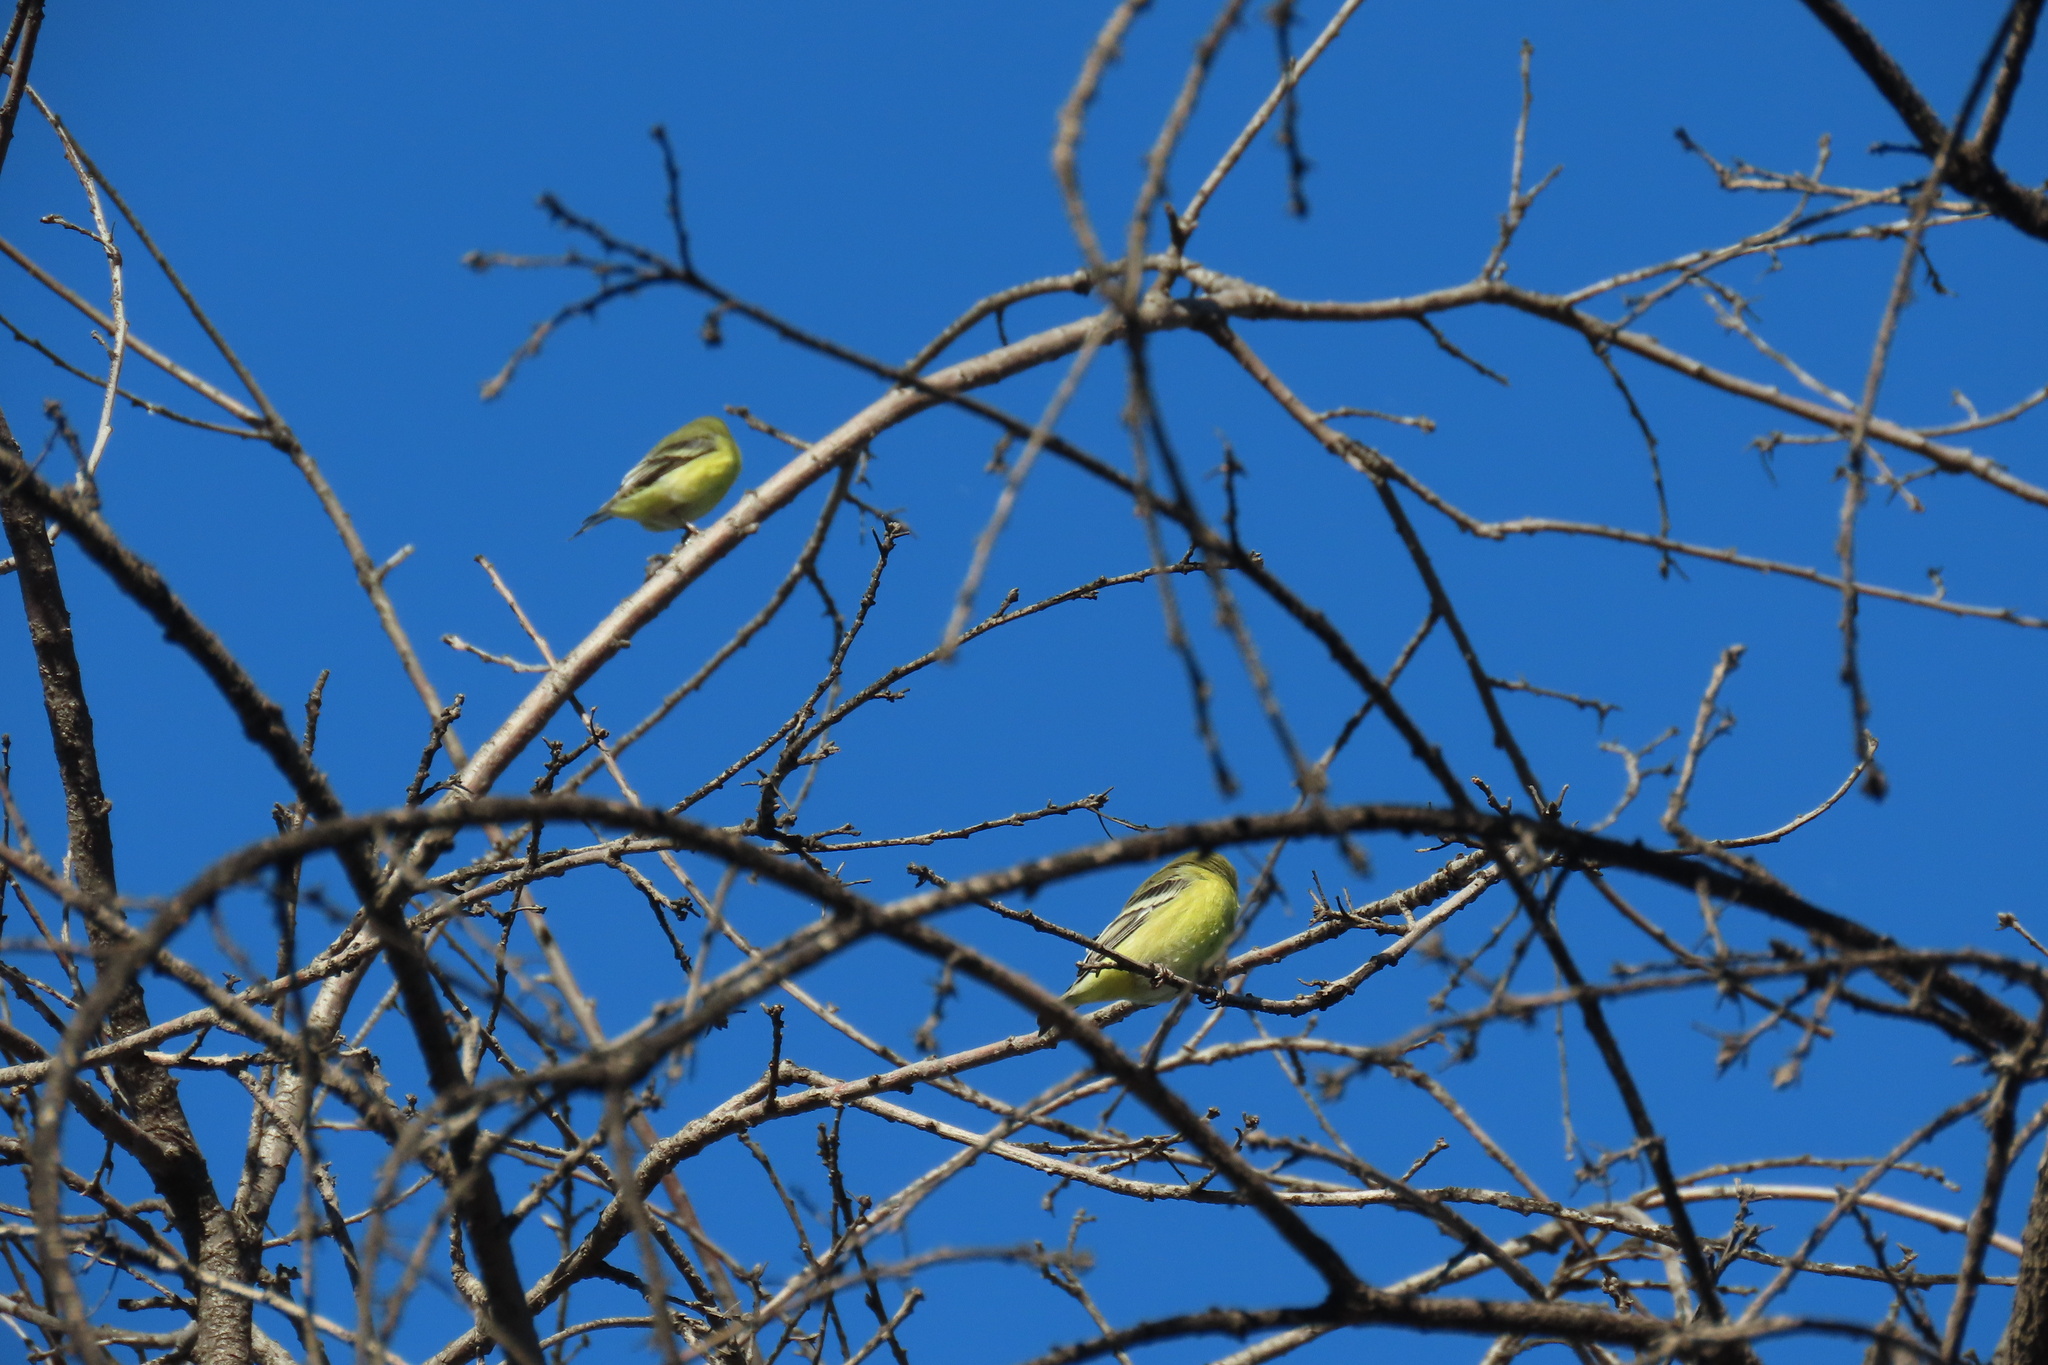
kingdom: Animalia
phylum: Chordata
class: Aves
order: Passeriformes
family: Fringillidae
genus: Spinus
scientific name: Spinus psaltria
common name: Lesser goldfinch
